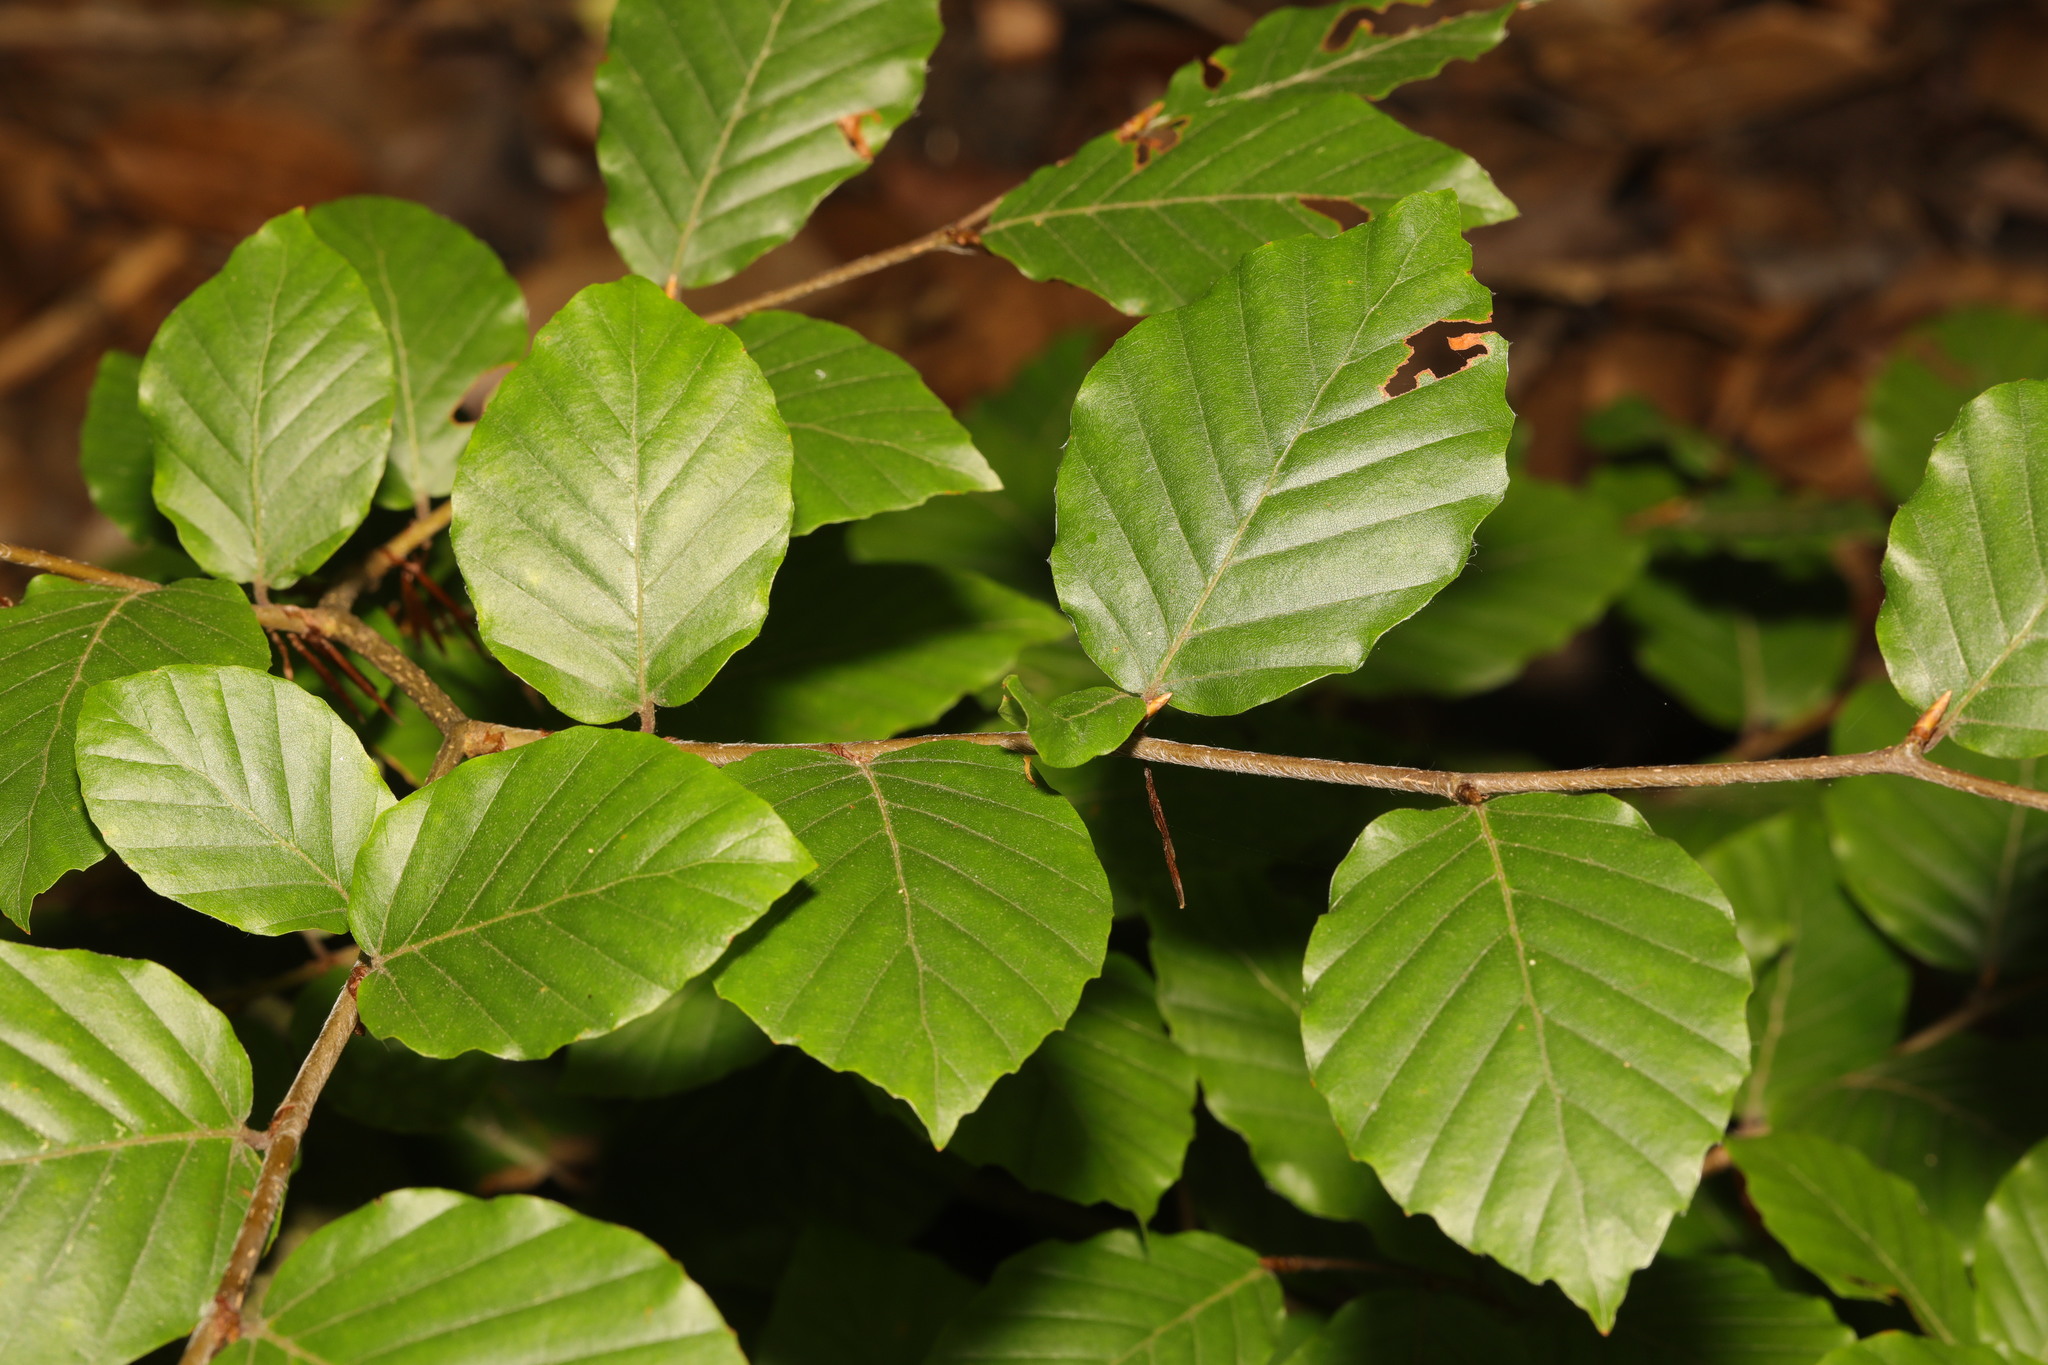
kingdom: Plantae
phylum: Tracheophyta
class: Magnoliopsida
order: Fagales
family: Fagaceae
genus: Fagus
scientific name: Fagus sylvatica
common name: Beech
